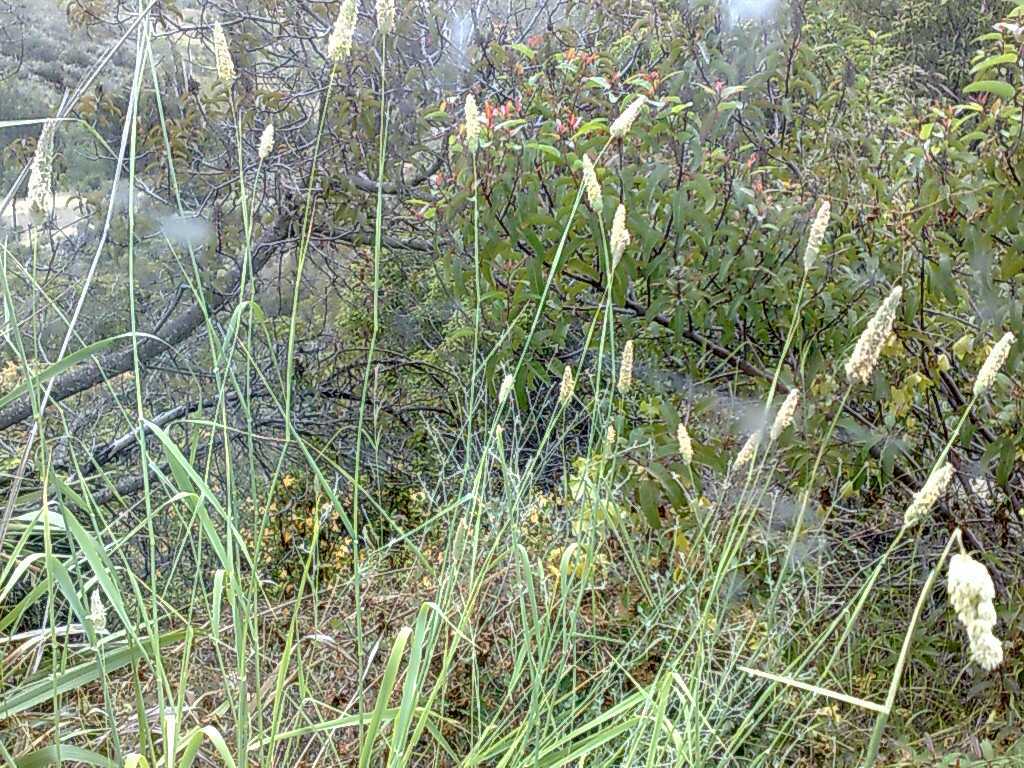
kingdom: Plantae
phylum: Tracheophyta
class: Liliopsida
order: Poales
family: Poaceae
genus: Phalaris
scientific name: Phalaris aquatica
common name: Bulbous canary-grass
